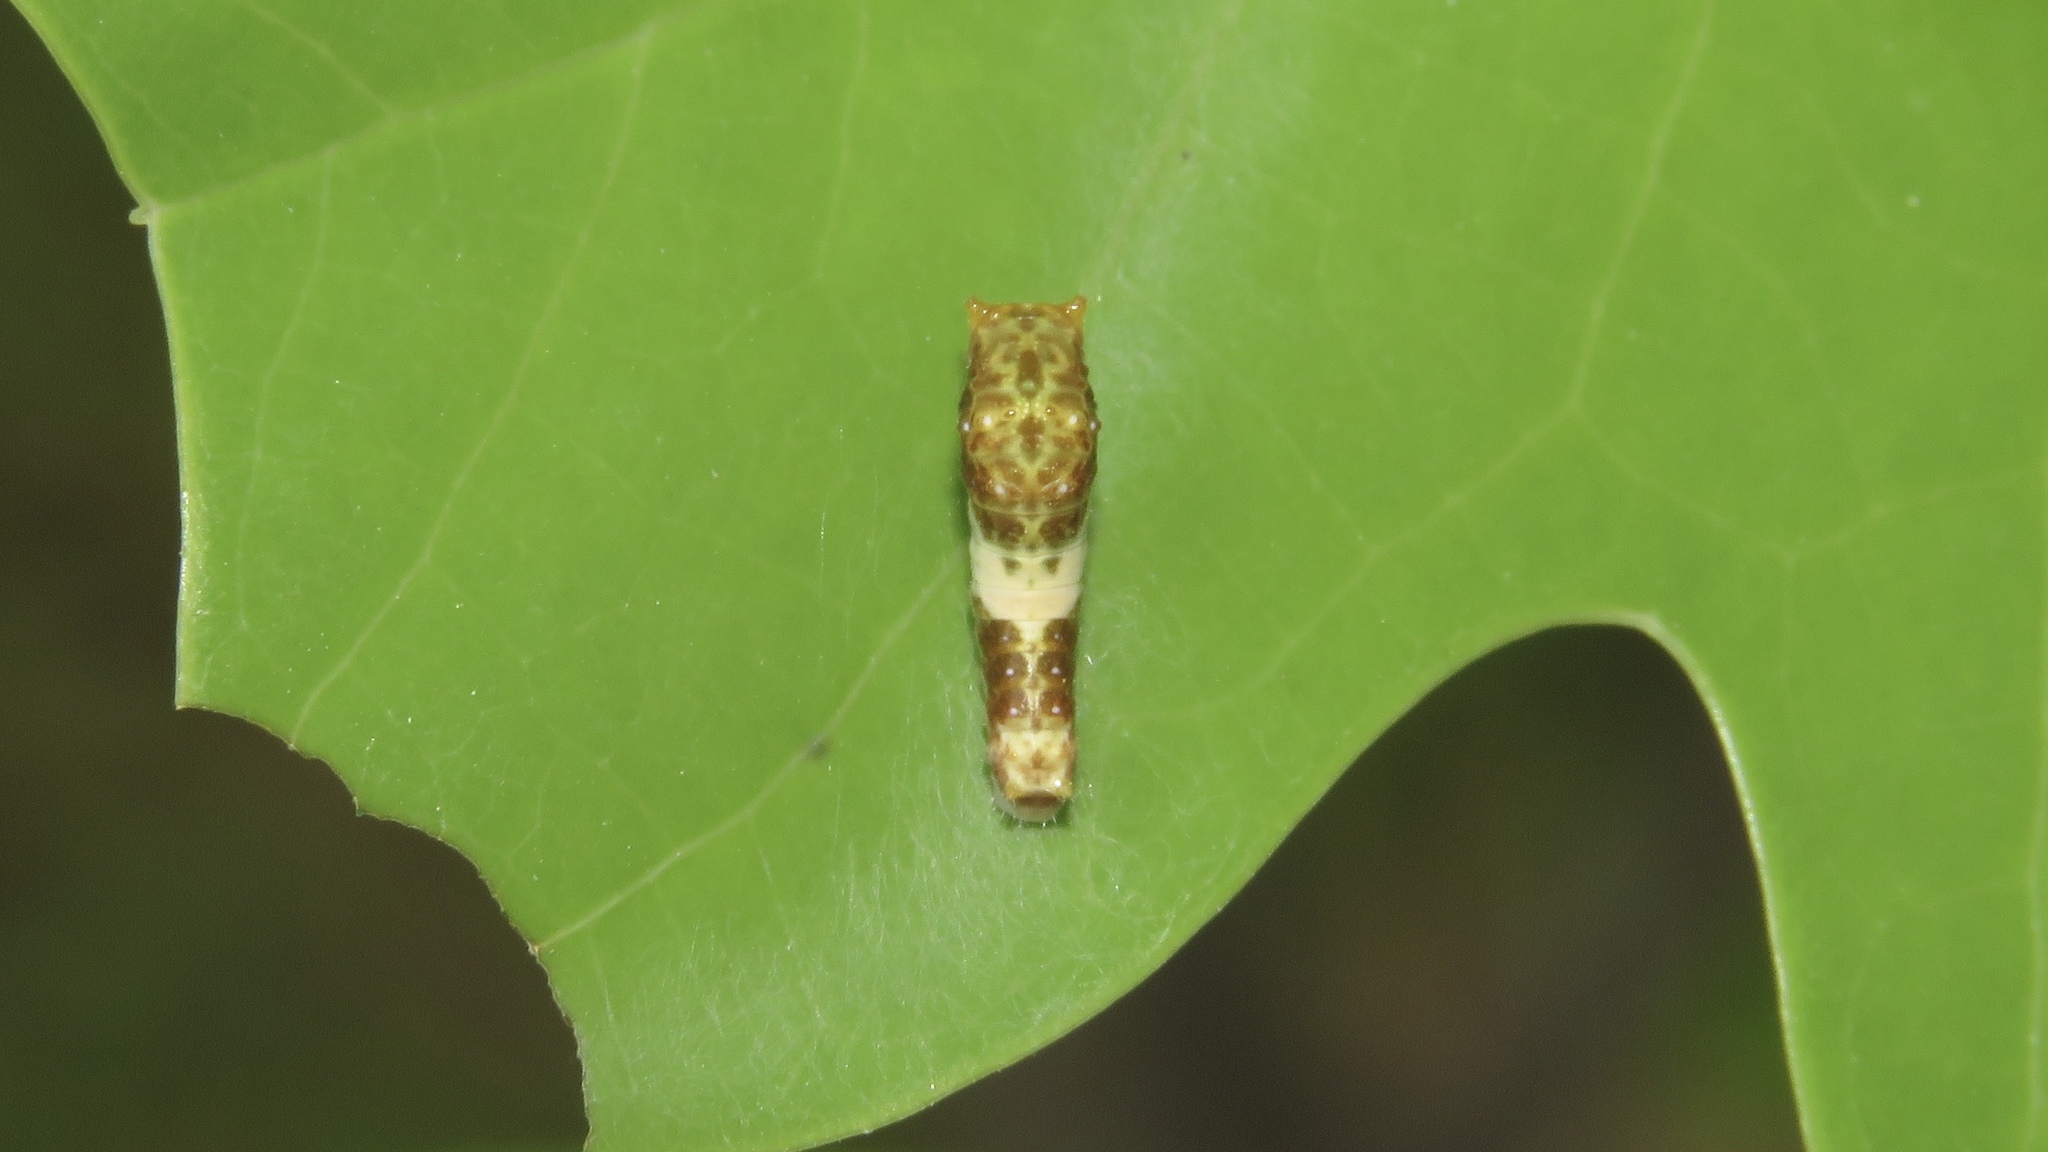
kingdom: Animalia
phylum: Arthropoda
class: Insecta
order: Lepidoptera
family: Papilionidae
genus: Pterourus
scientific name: Pterourus
